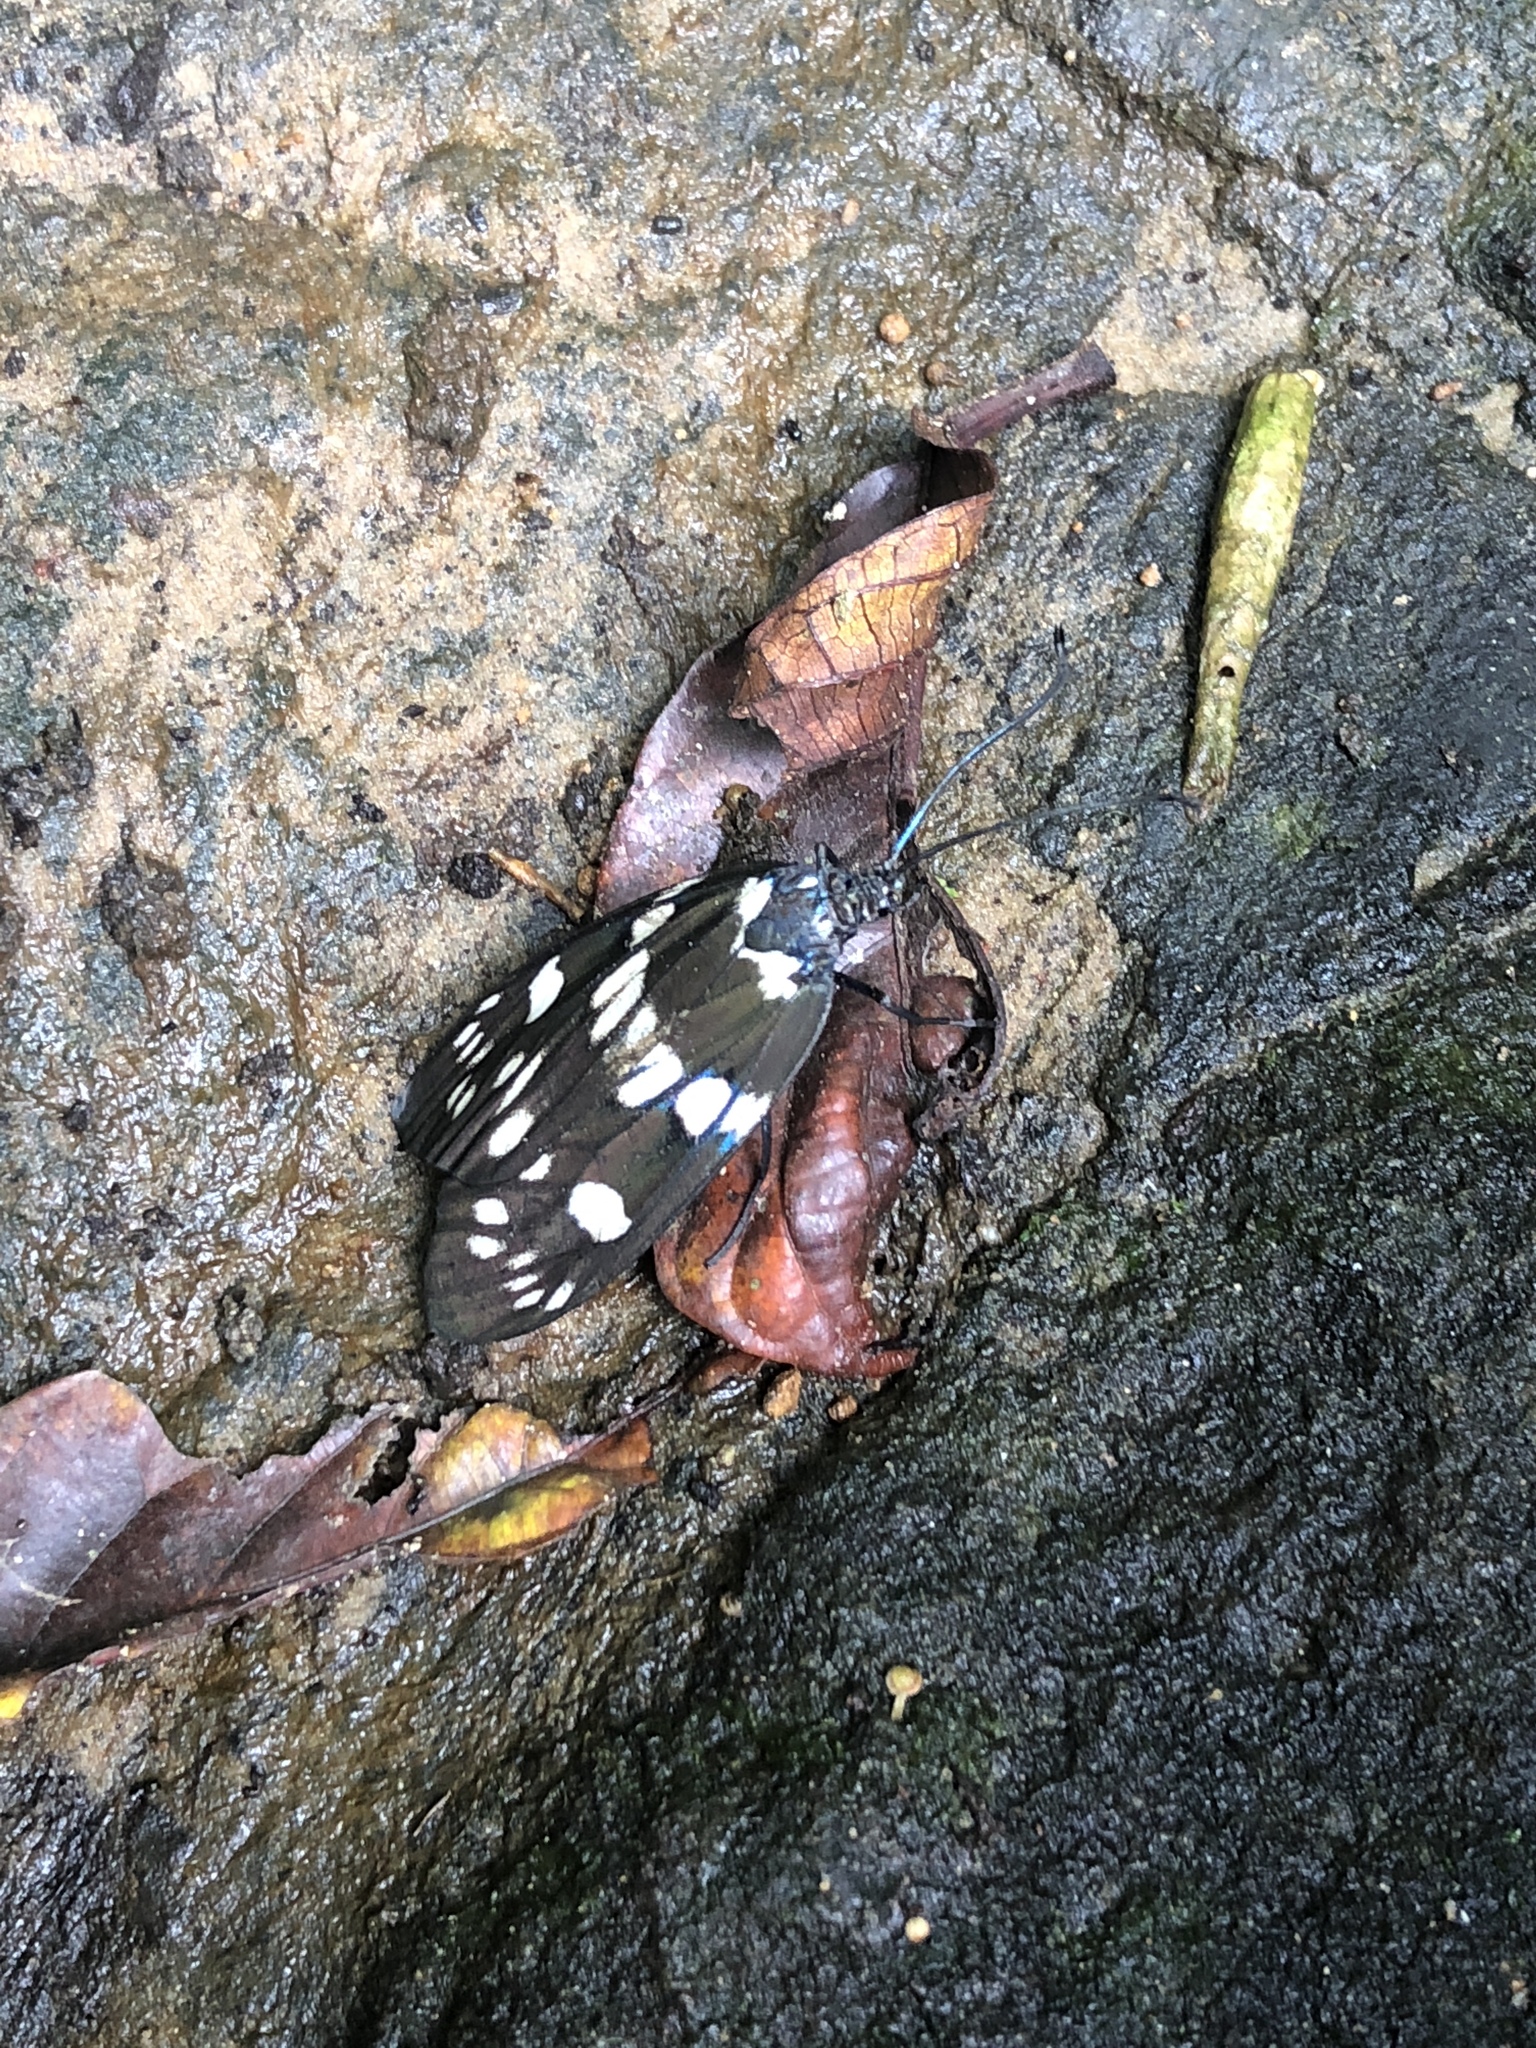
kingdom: Animalia
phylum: Arthropoda
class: Insecta
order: Lepidoptera
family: Zygaenidae
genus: Eterusia
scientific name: Eterusia aedea
